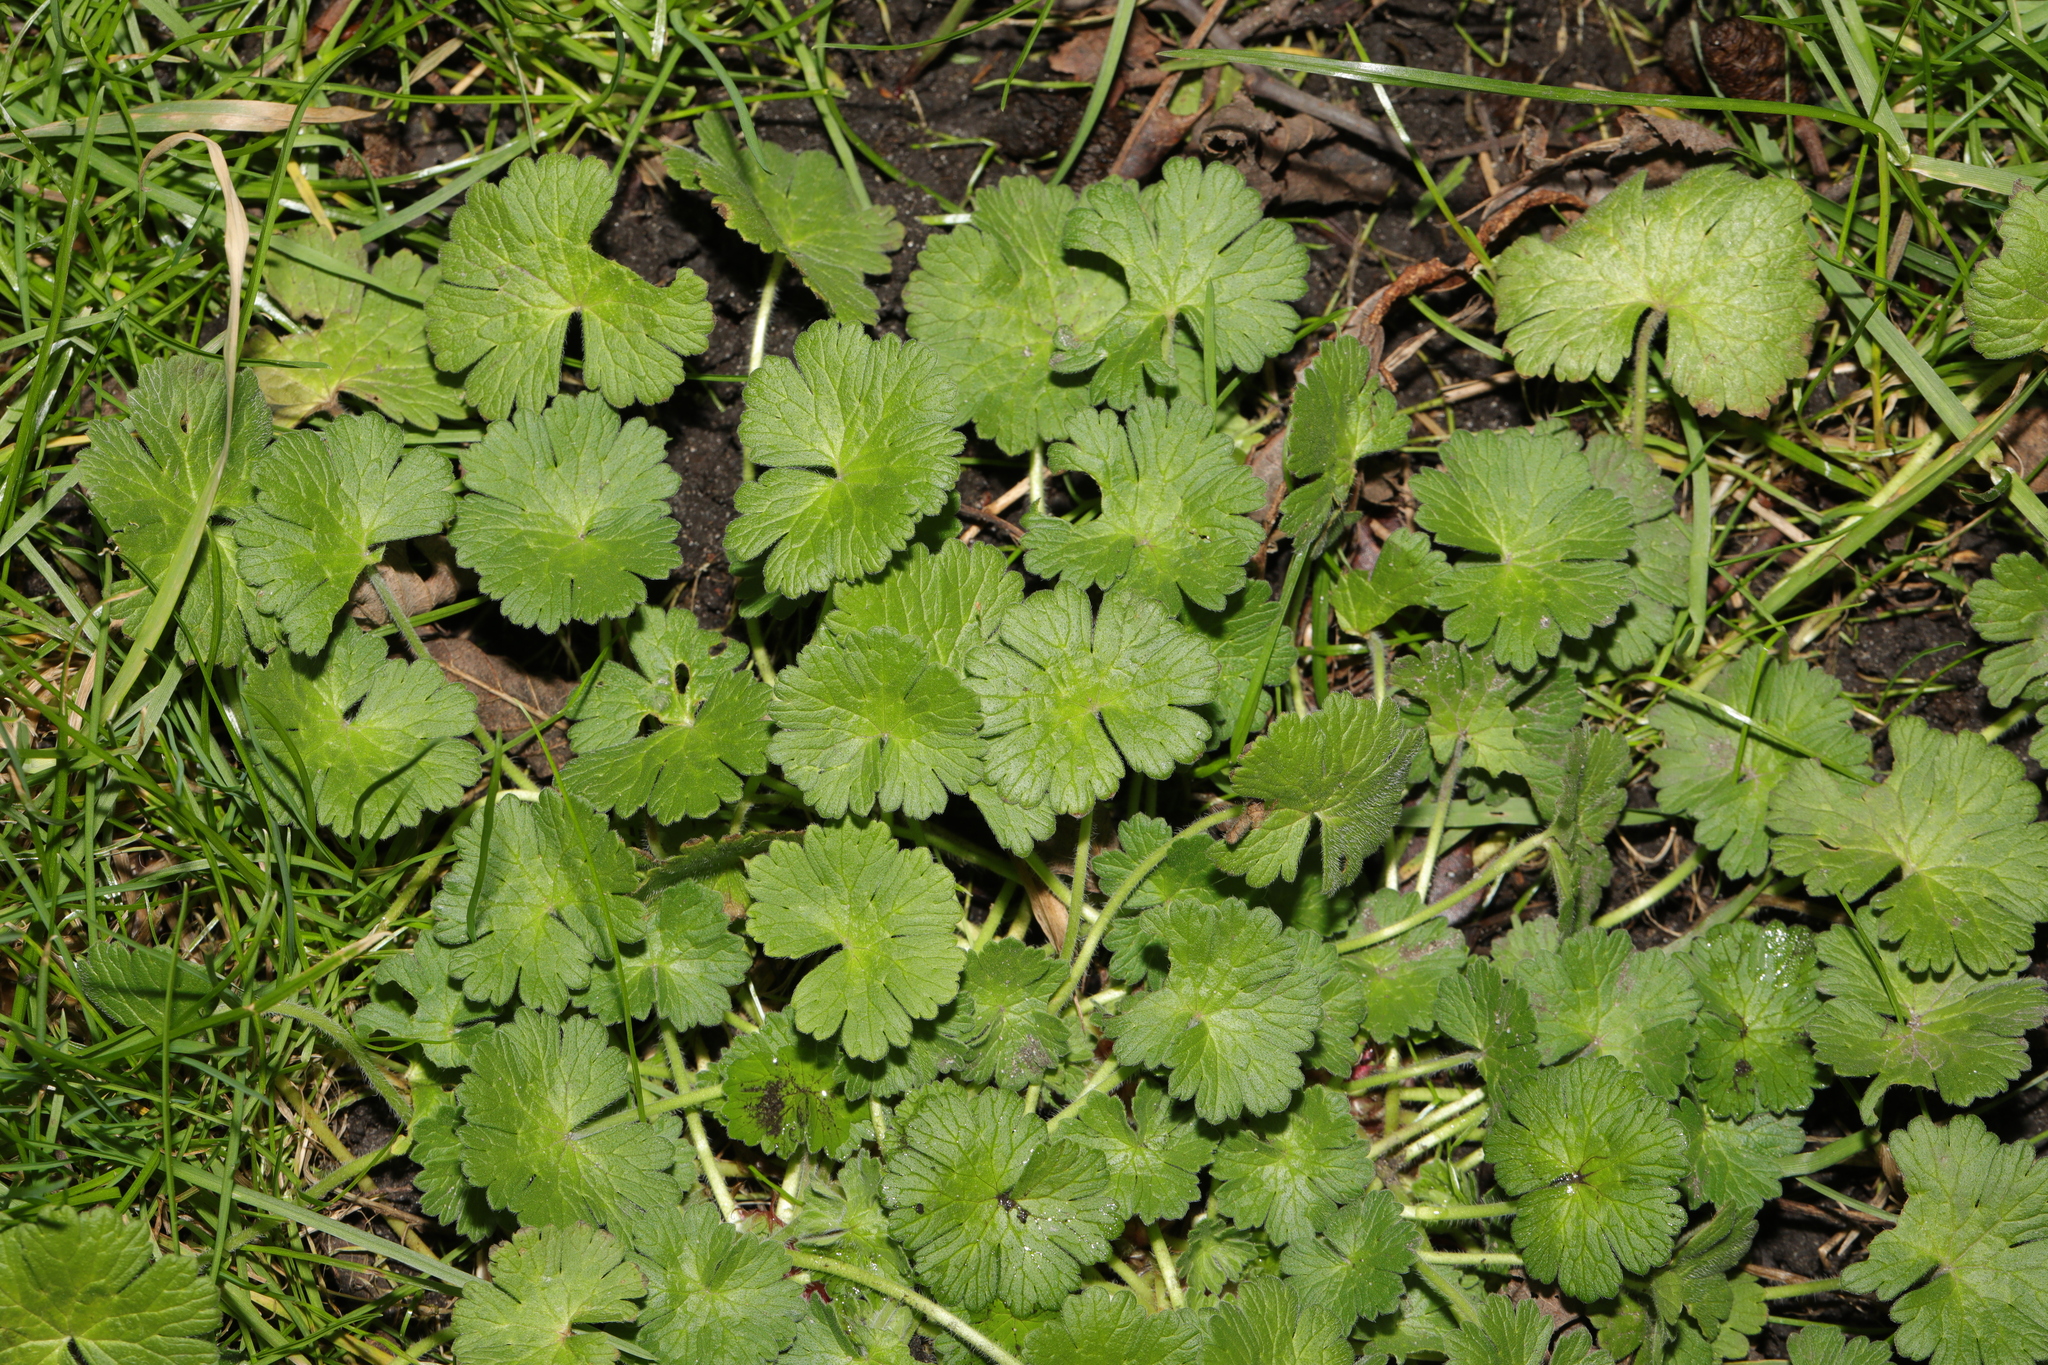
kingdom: Plantae
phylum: Tracheophyta
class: Magnoliopsida
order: Geraniales
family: Geraniaceae
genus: Geranium
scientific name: Geranium pyrenaicum
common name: Hedgerow crane's-bill
